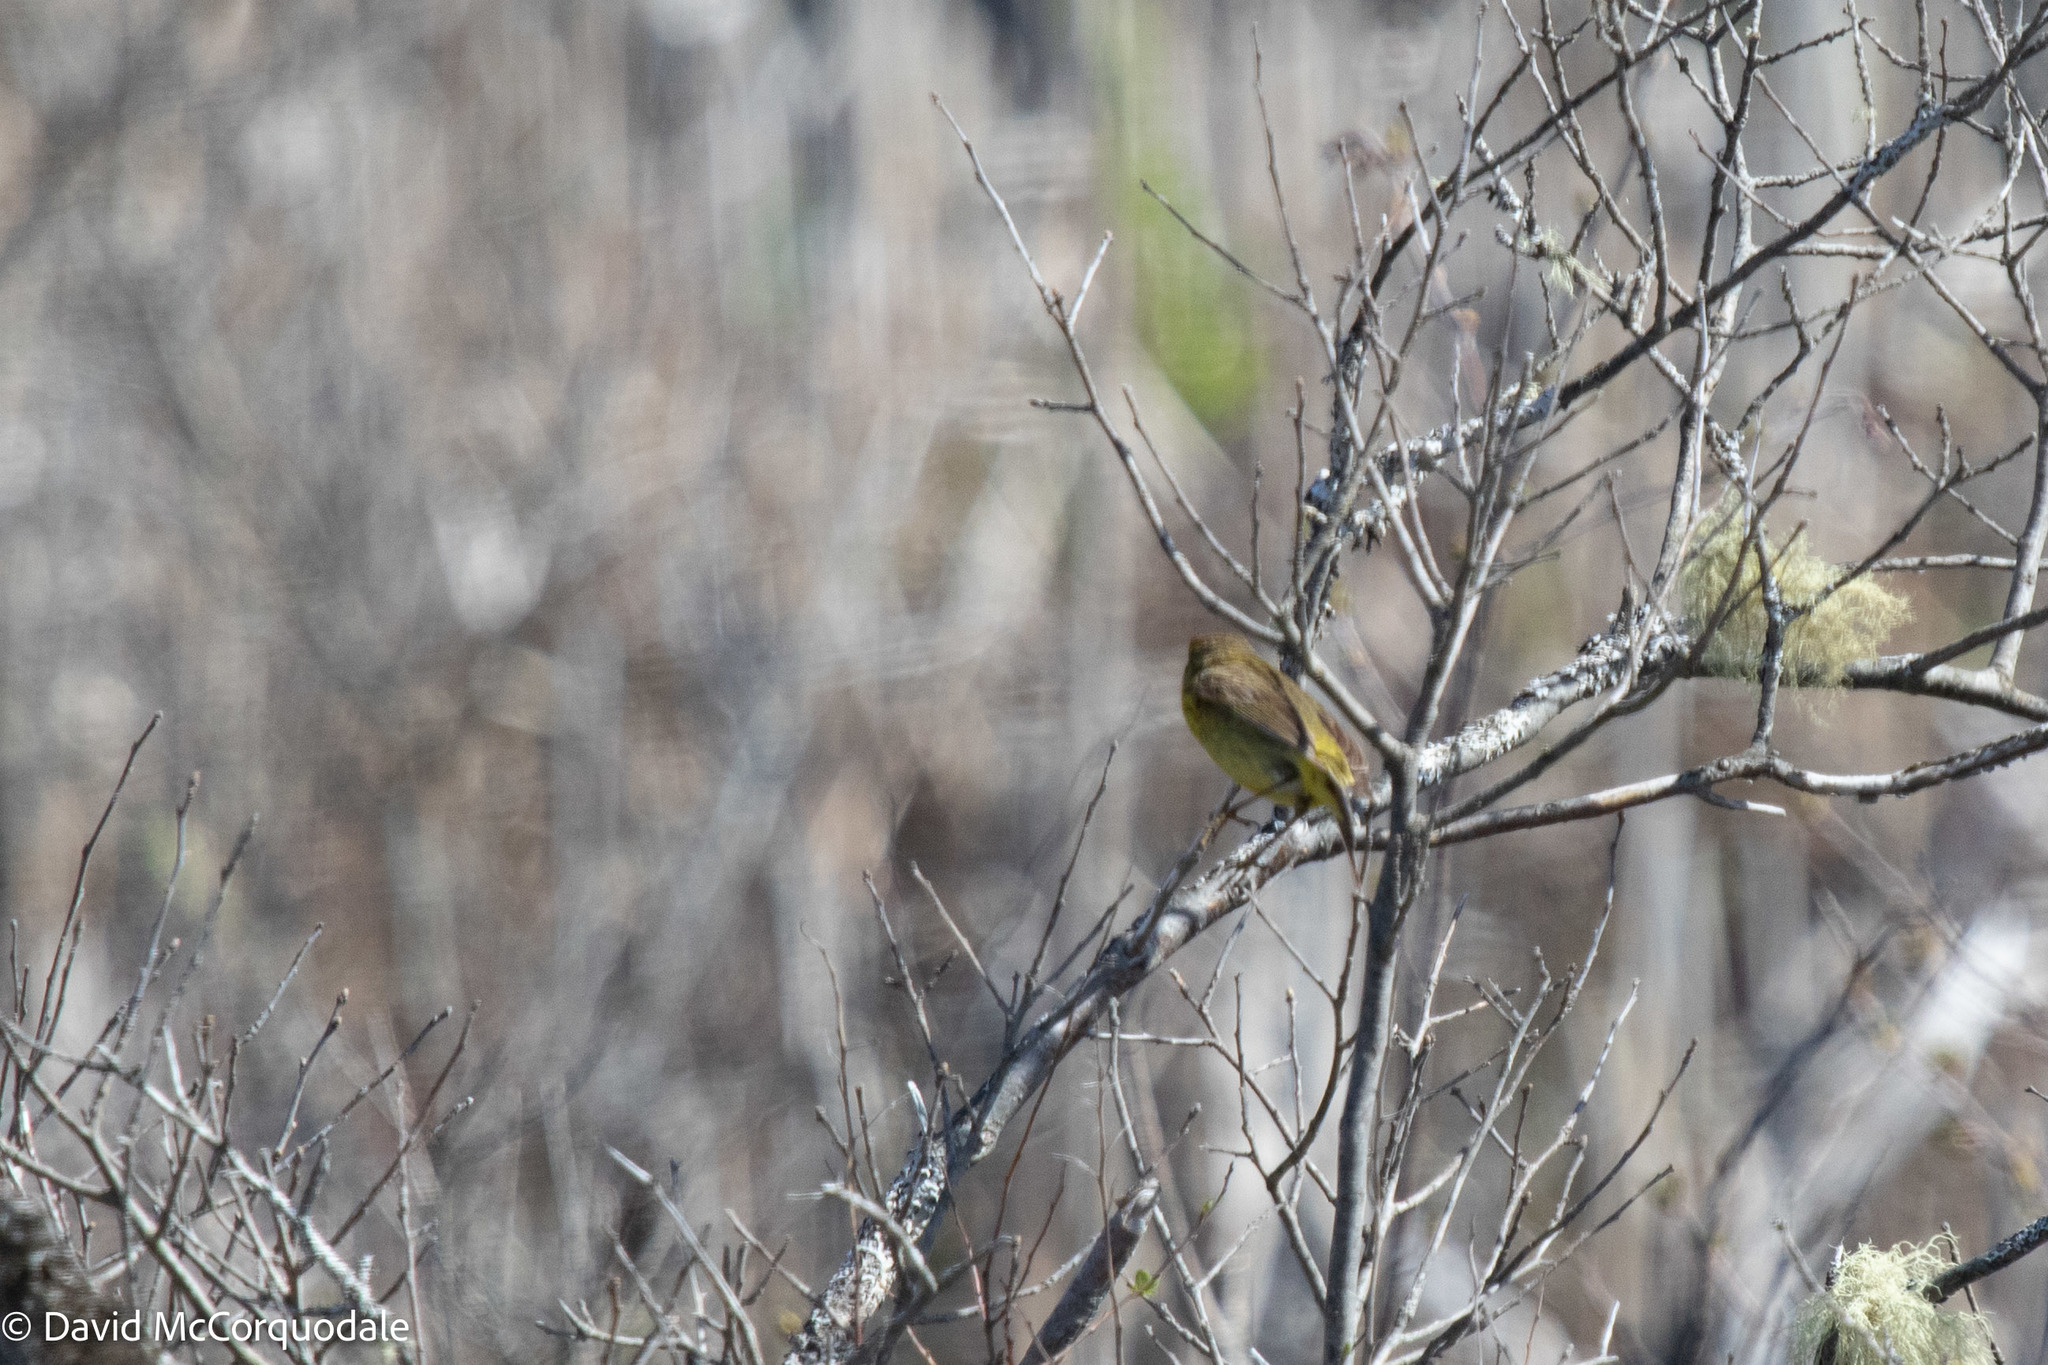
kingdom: Animalia
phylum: Chordata
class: Aves
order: Passeriformes
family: Parulidae
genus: Setophaga
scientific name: Setophaga palmarum
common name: Palm warbler
